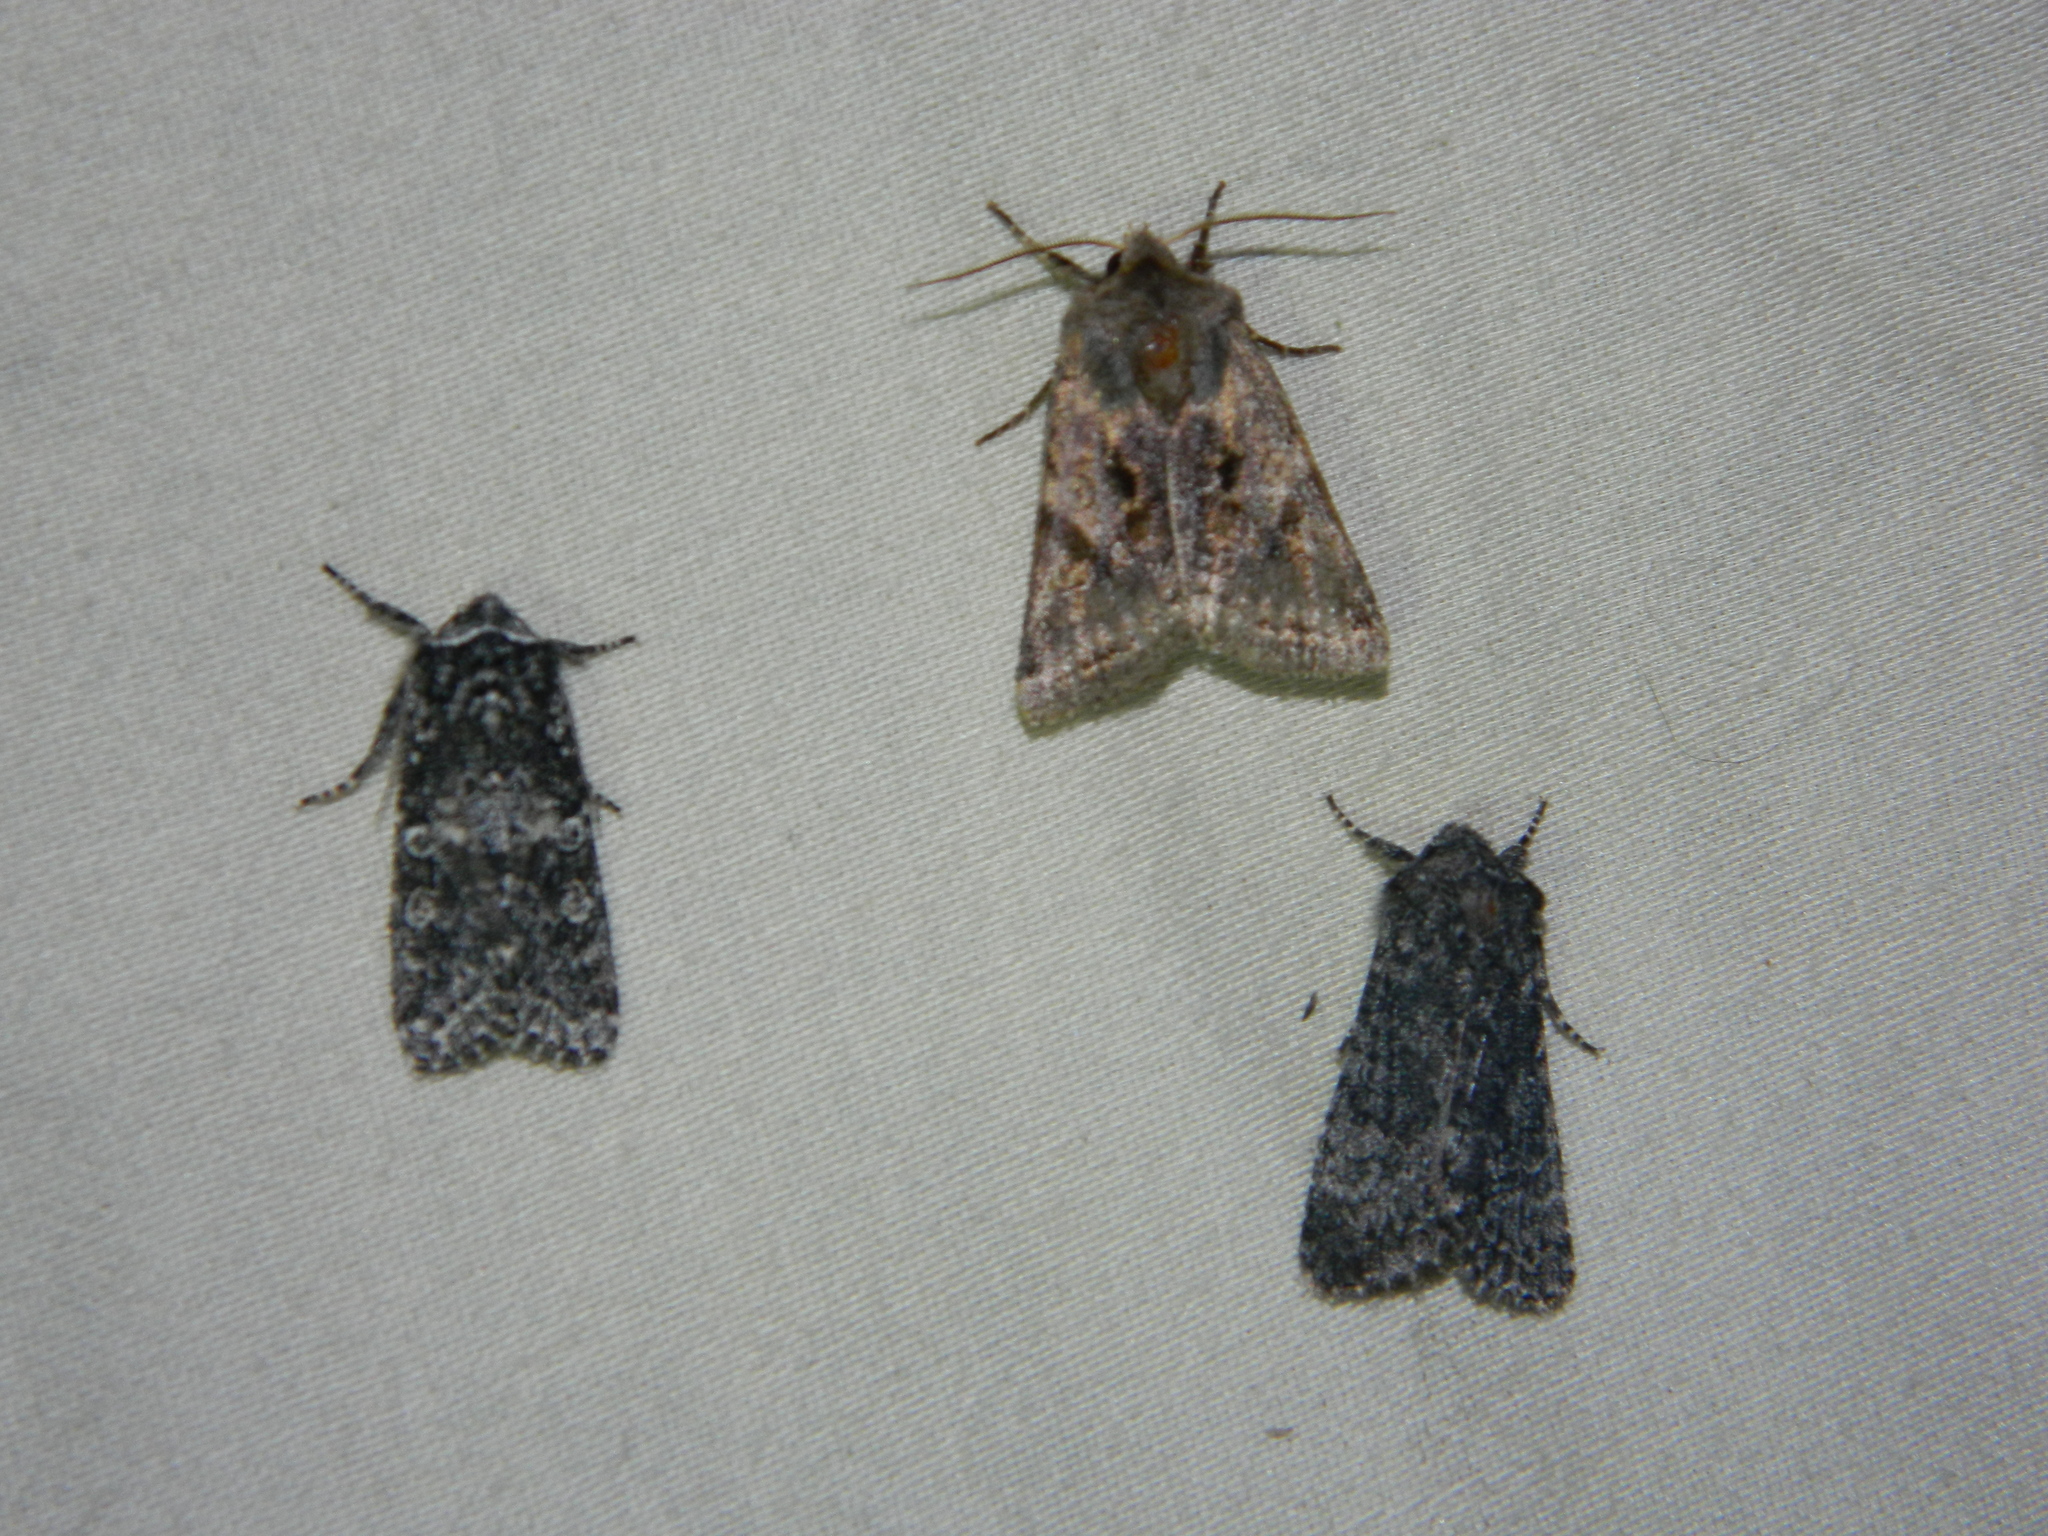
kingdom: Animalia
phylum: Arthropoda
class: Insecta
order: Lepidoptera
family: Noctuidae
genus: Egira
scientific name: Egira dolosa
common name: Lined black aspen cat.
